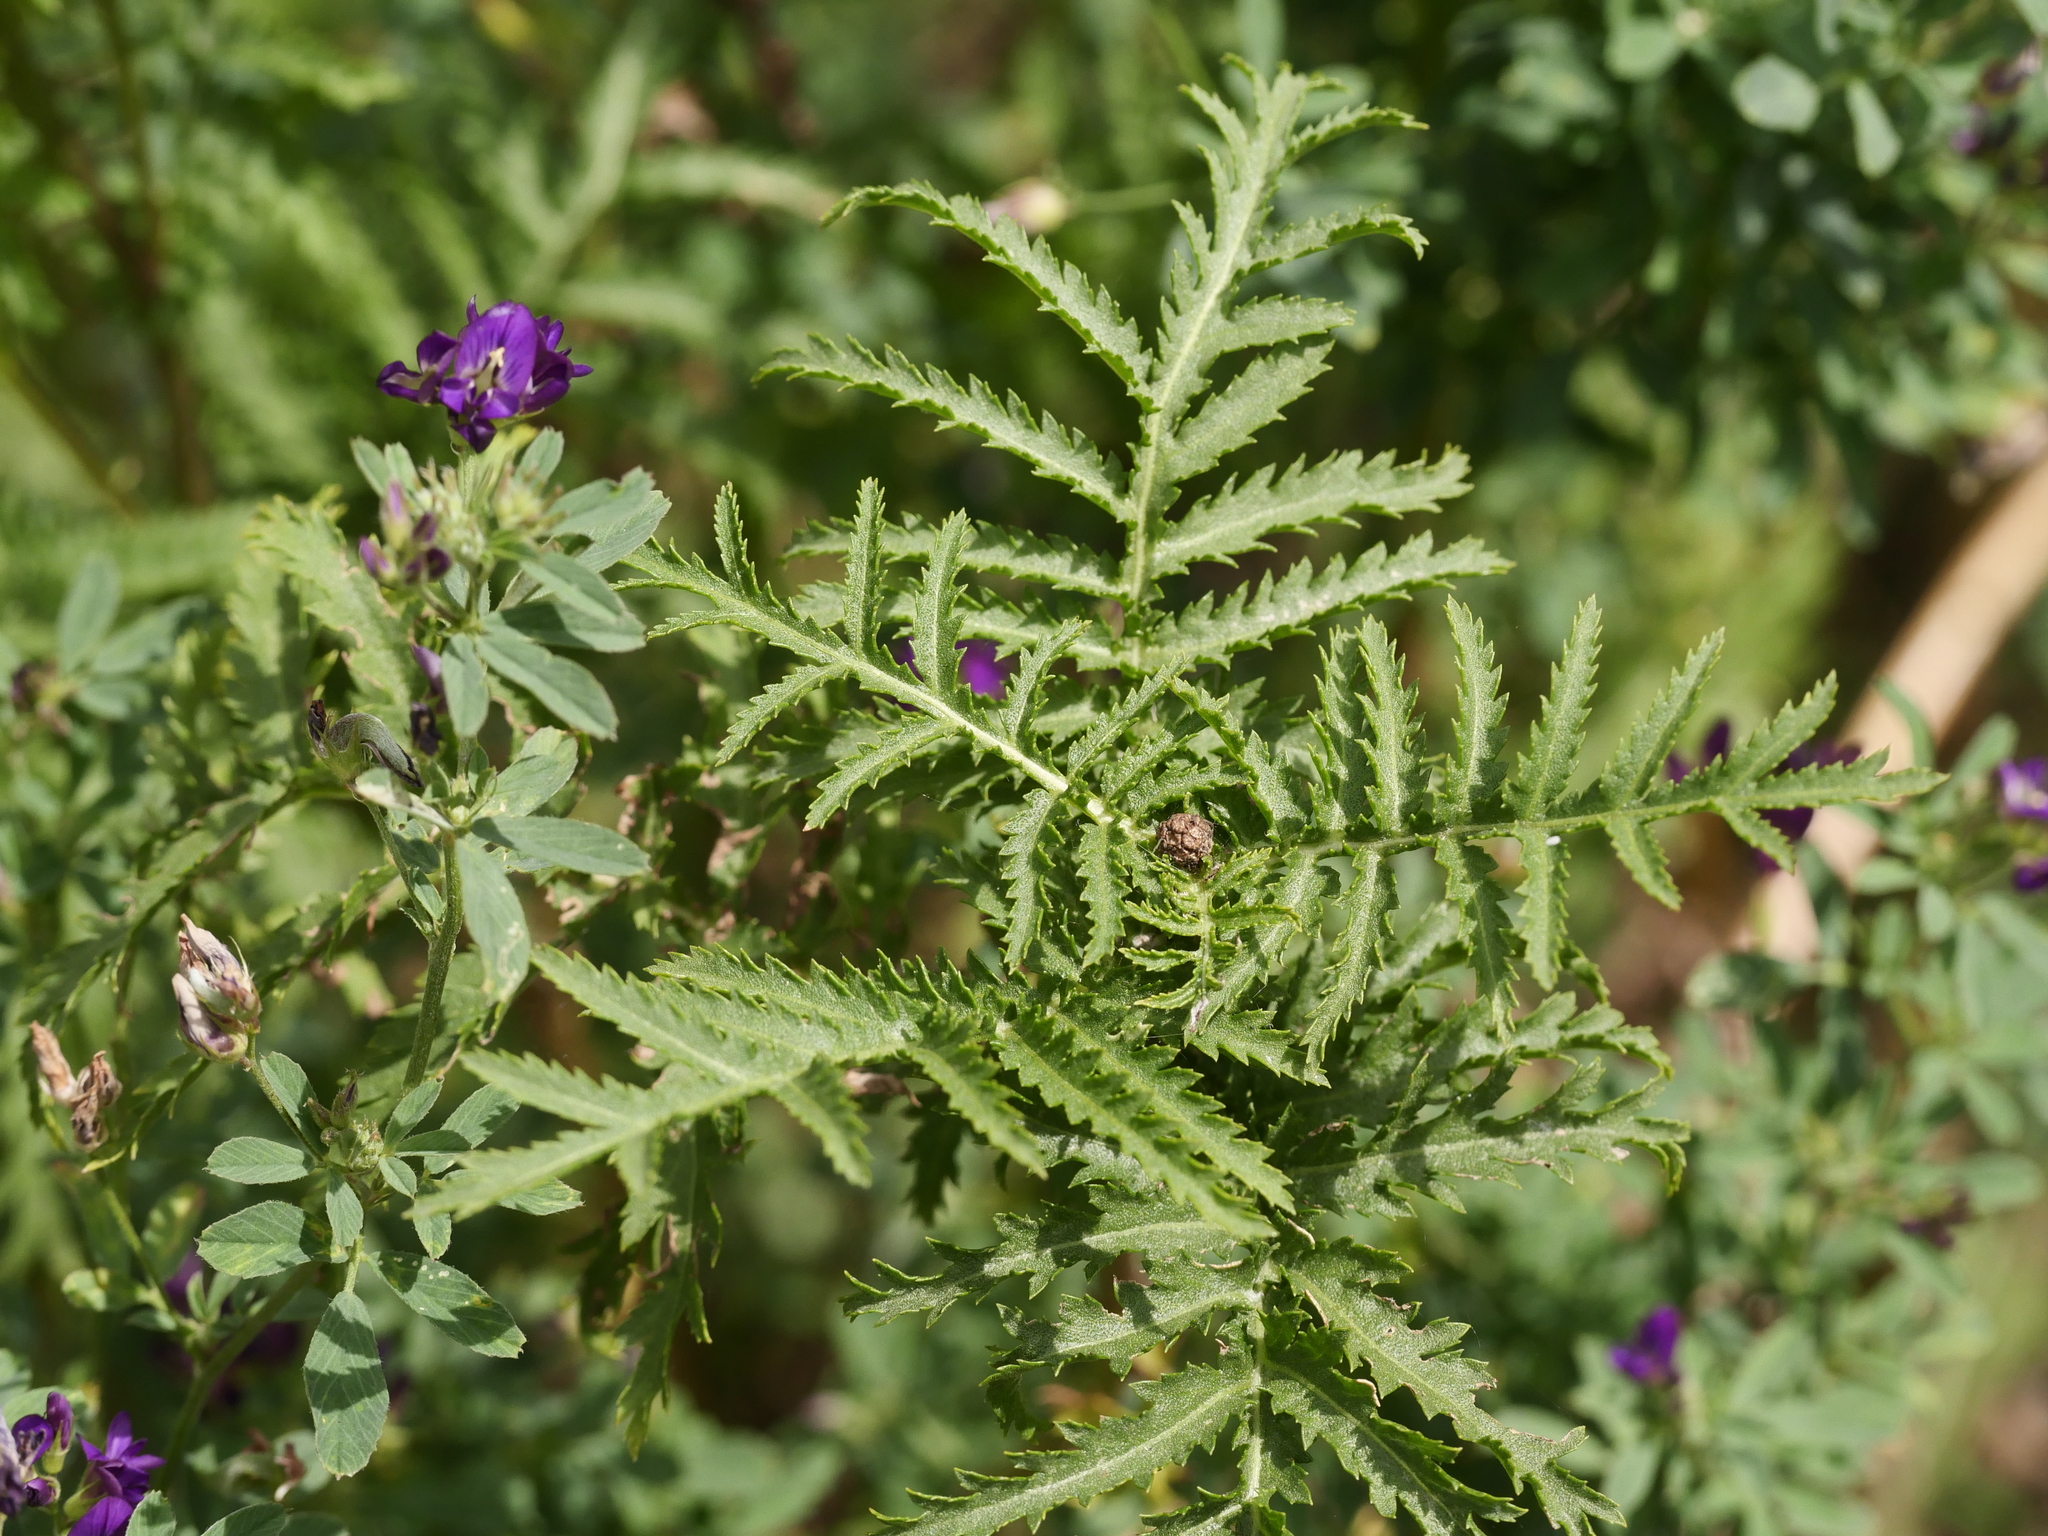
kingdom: Plantae
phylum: Tracheophyta
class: Magnoliopsida
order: Asterales
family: Asteraceae
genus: Tanacetum
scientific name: Tanacetum vulgare
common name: Common tansy
